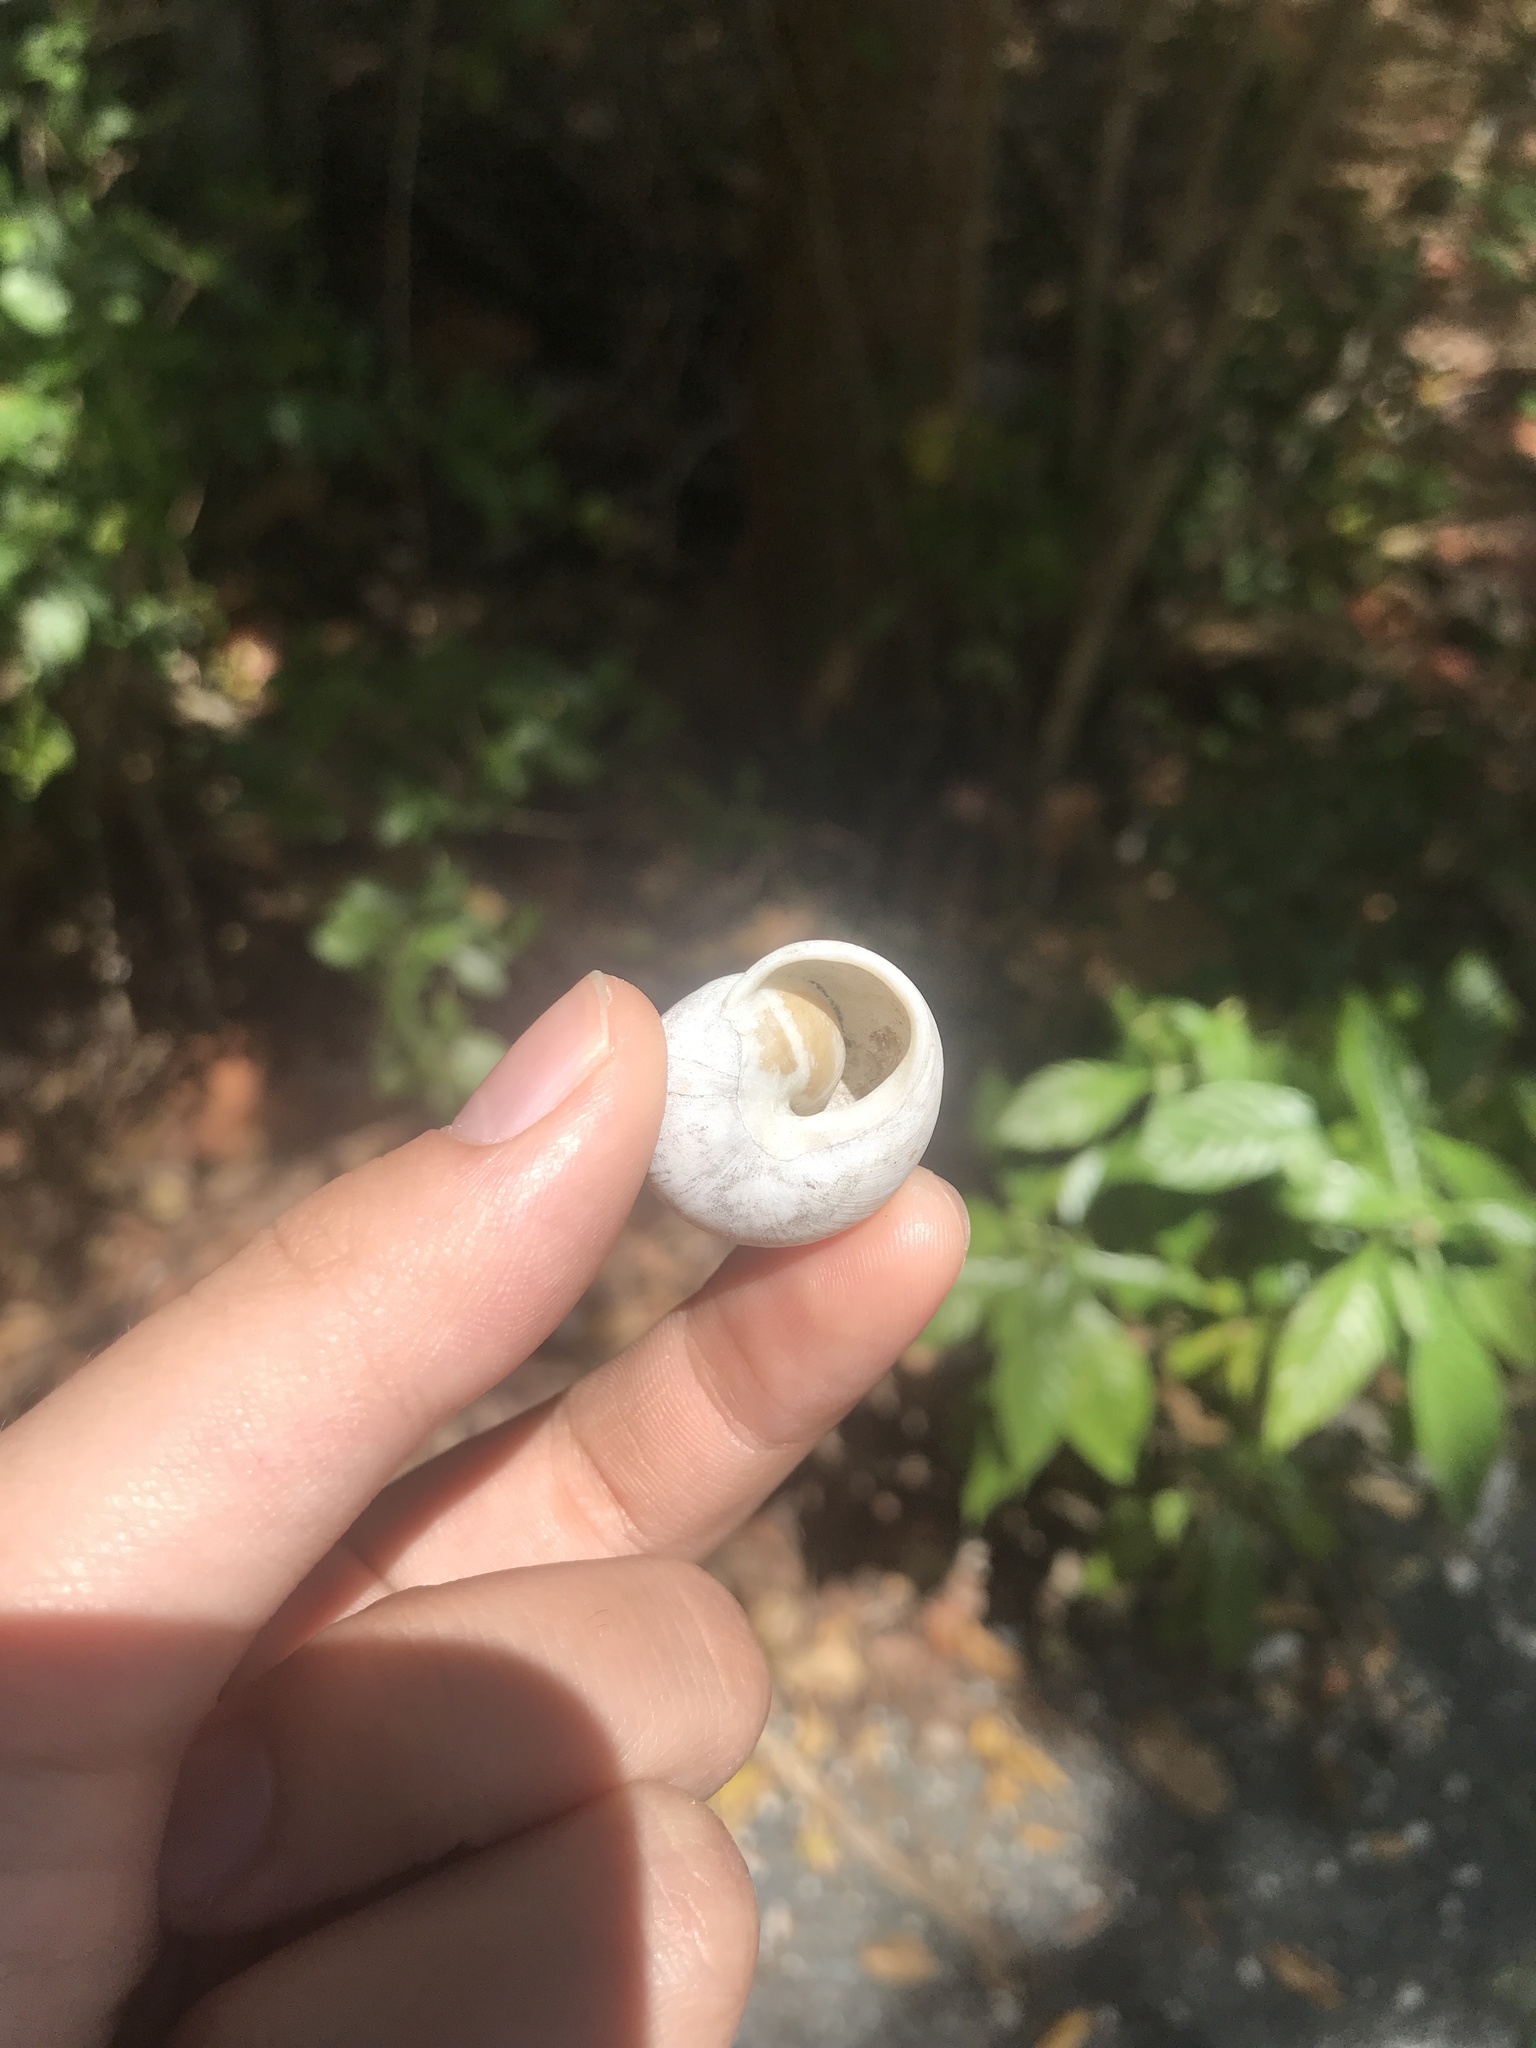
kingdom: Animalia
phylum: Mollusca
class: Gastropoda
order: Stylommatophora
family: Zachrysiidae
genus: Zachrysia
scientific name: Zachrysia provisoria
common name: Garden zachrysia
